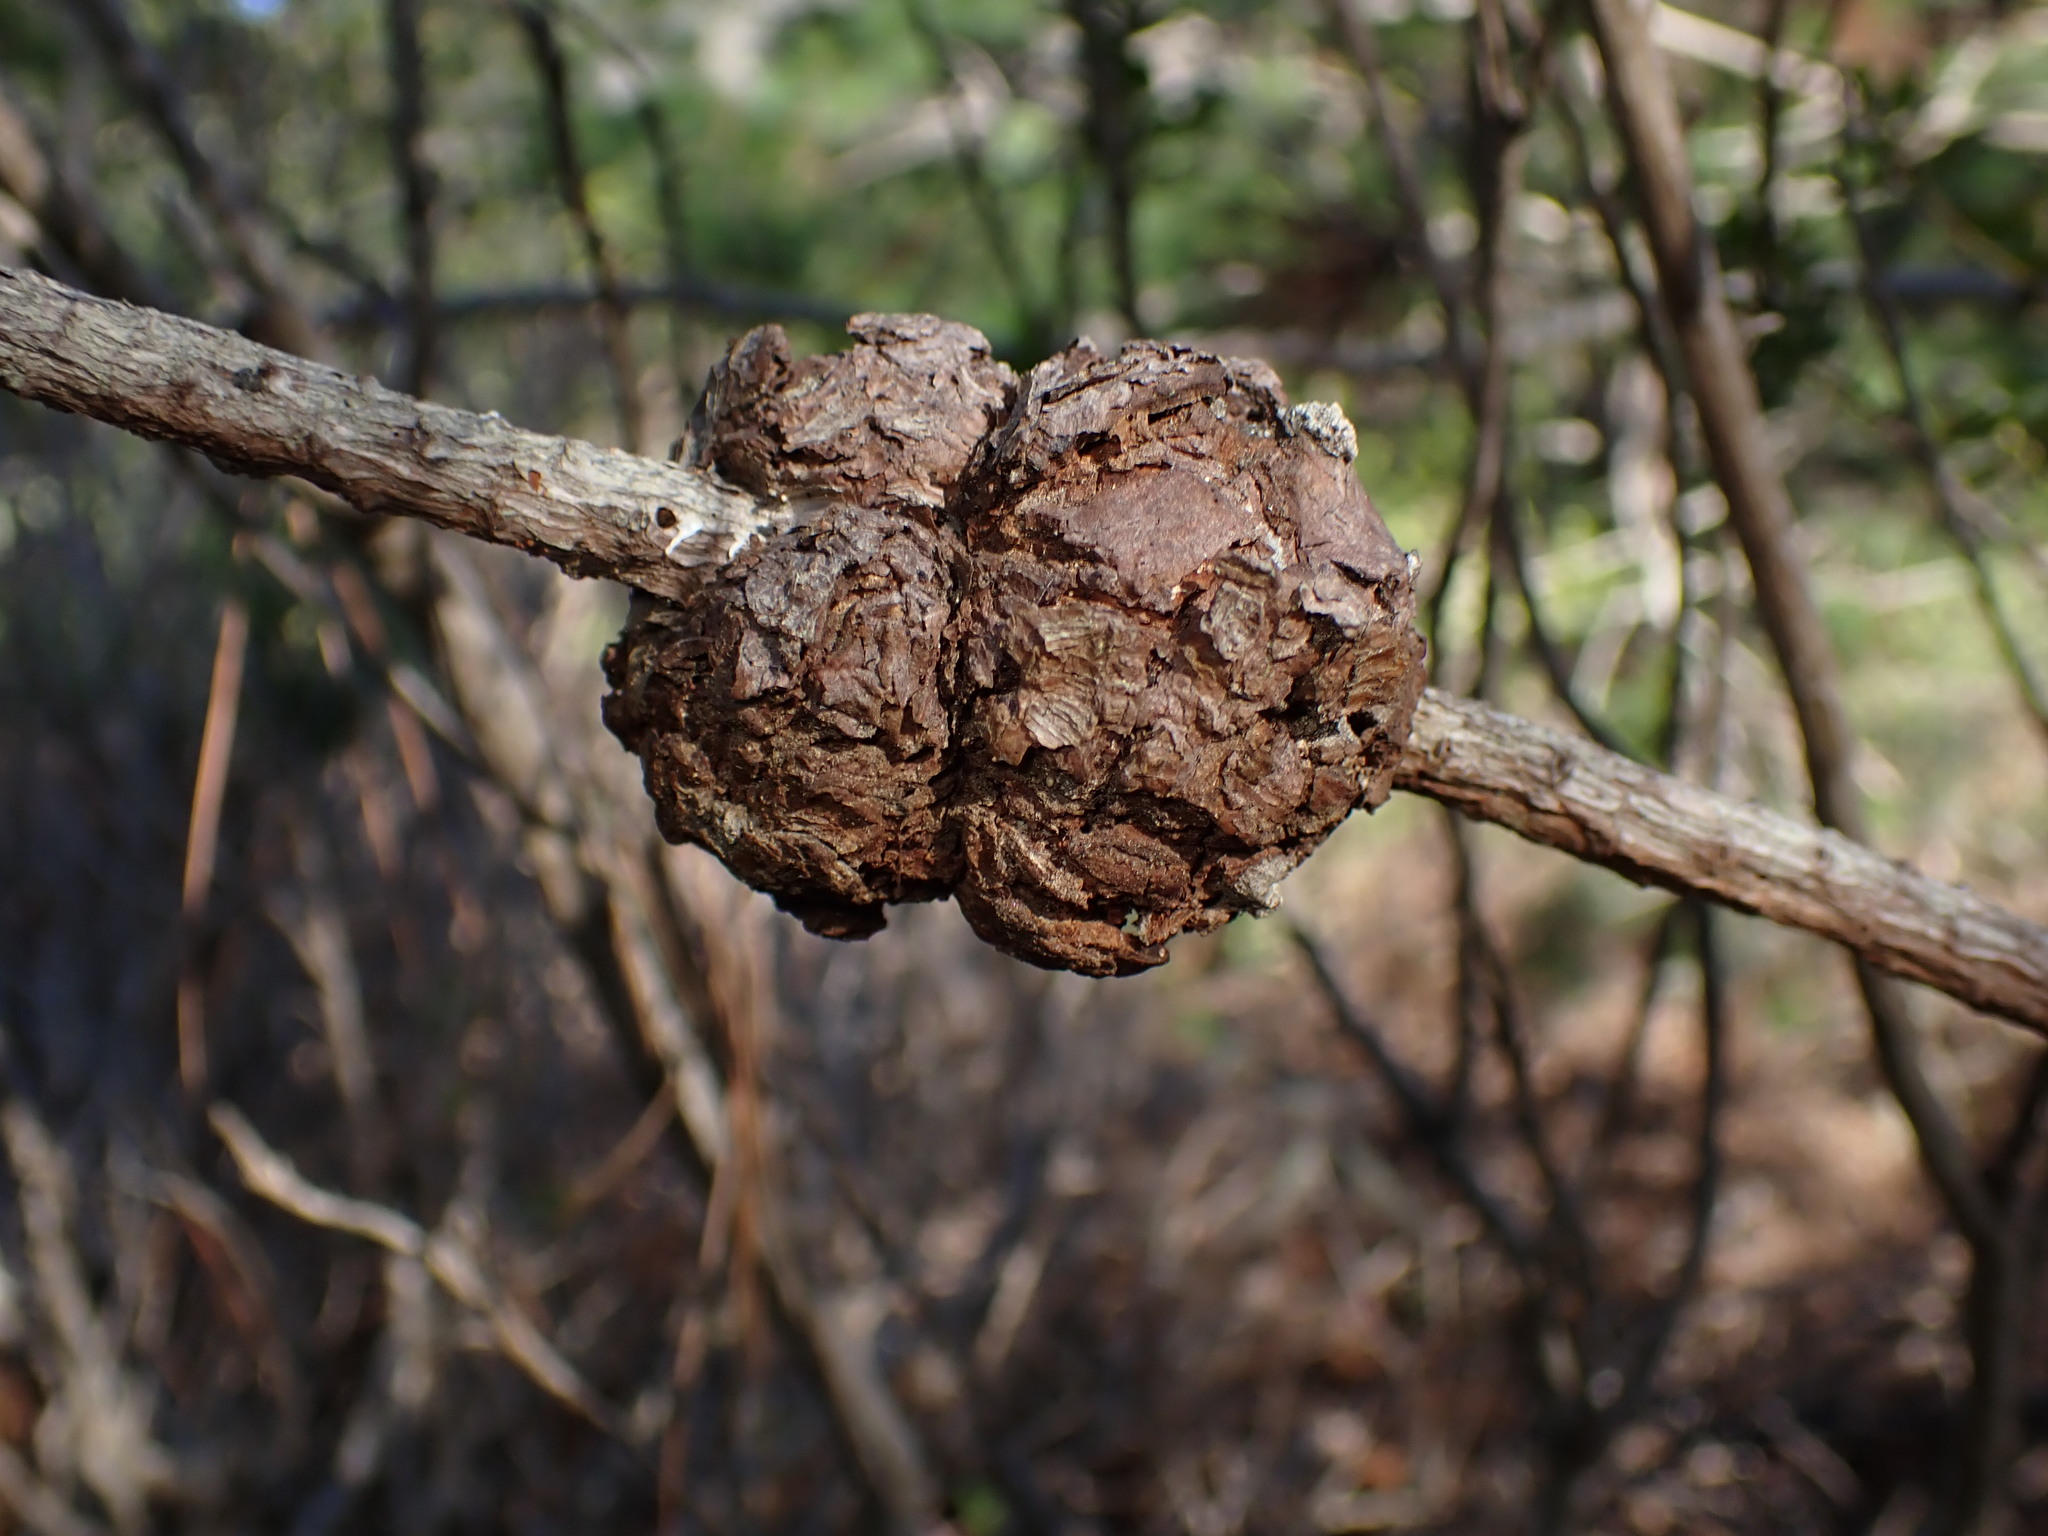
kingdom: Fungi
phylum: Basidiomycota
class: Pucciniomycetes
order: Pucciniales
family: Cronartiaceae
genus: Cronartium
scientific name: Cronartium harknessii
